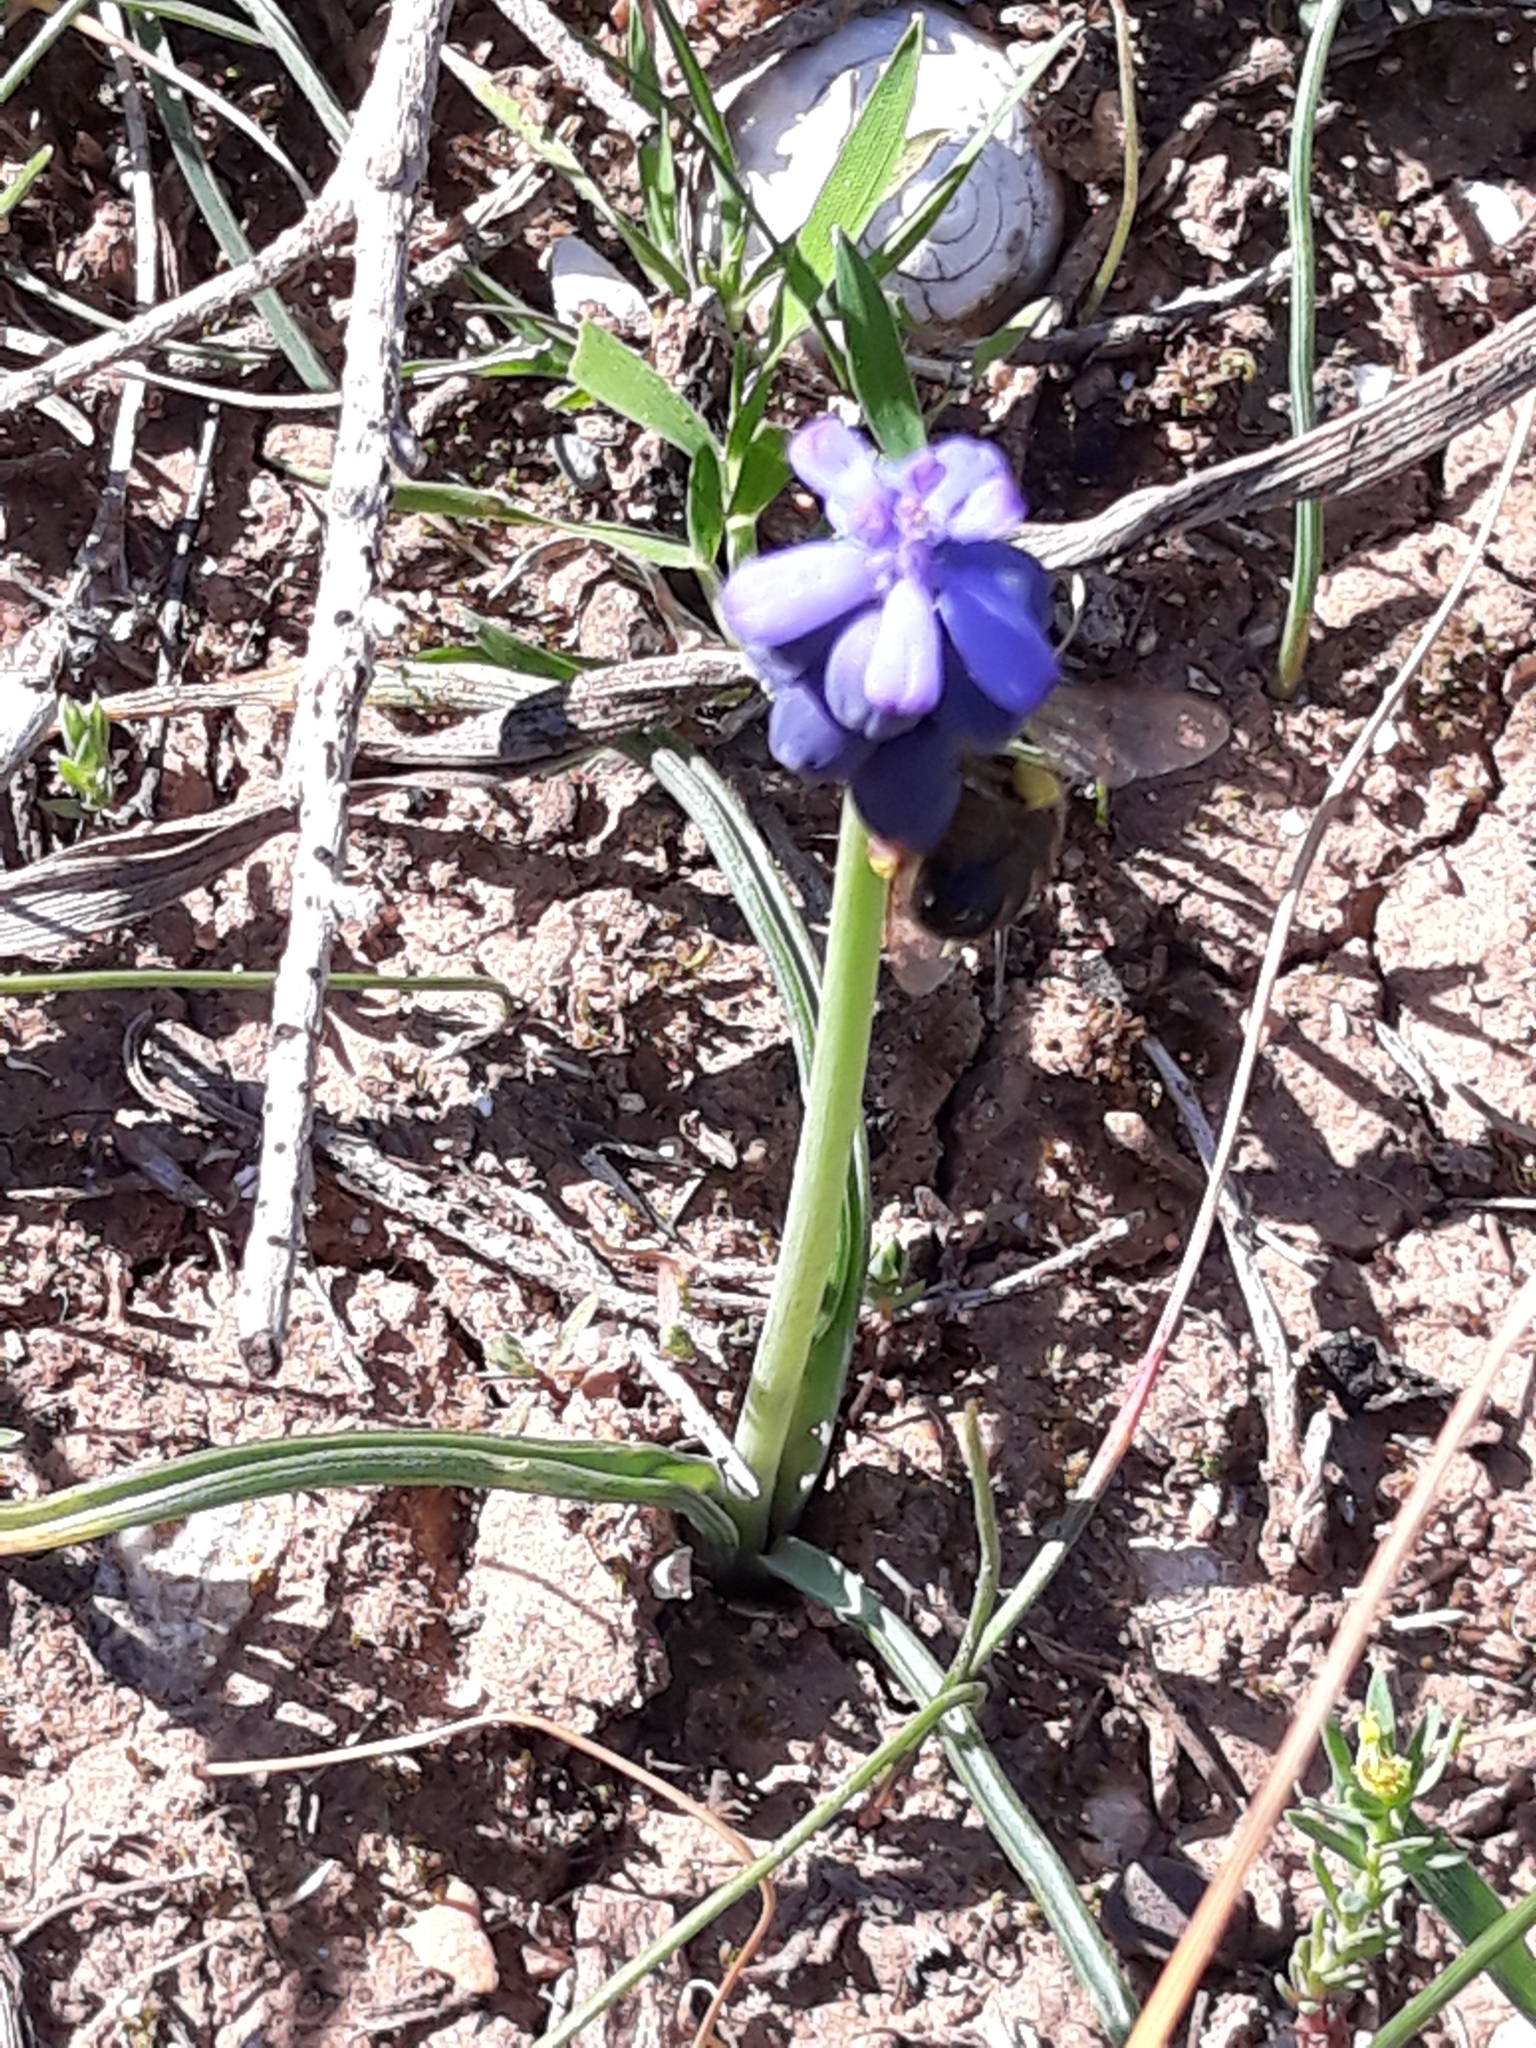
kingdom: Plantae
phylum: Tracheophyta
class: Liliopsida
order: Asparagales
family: Asparagaceae
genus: Muscari
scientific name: Muscari neglectum
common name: Grape-hyacinth
